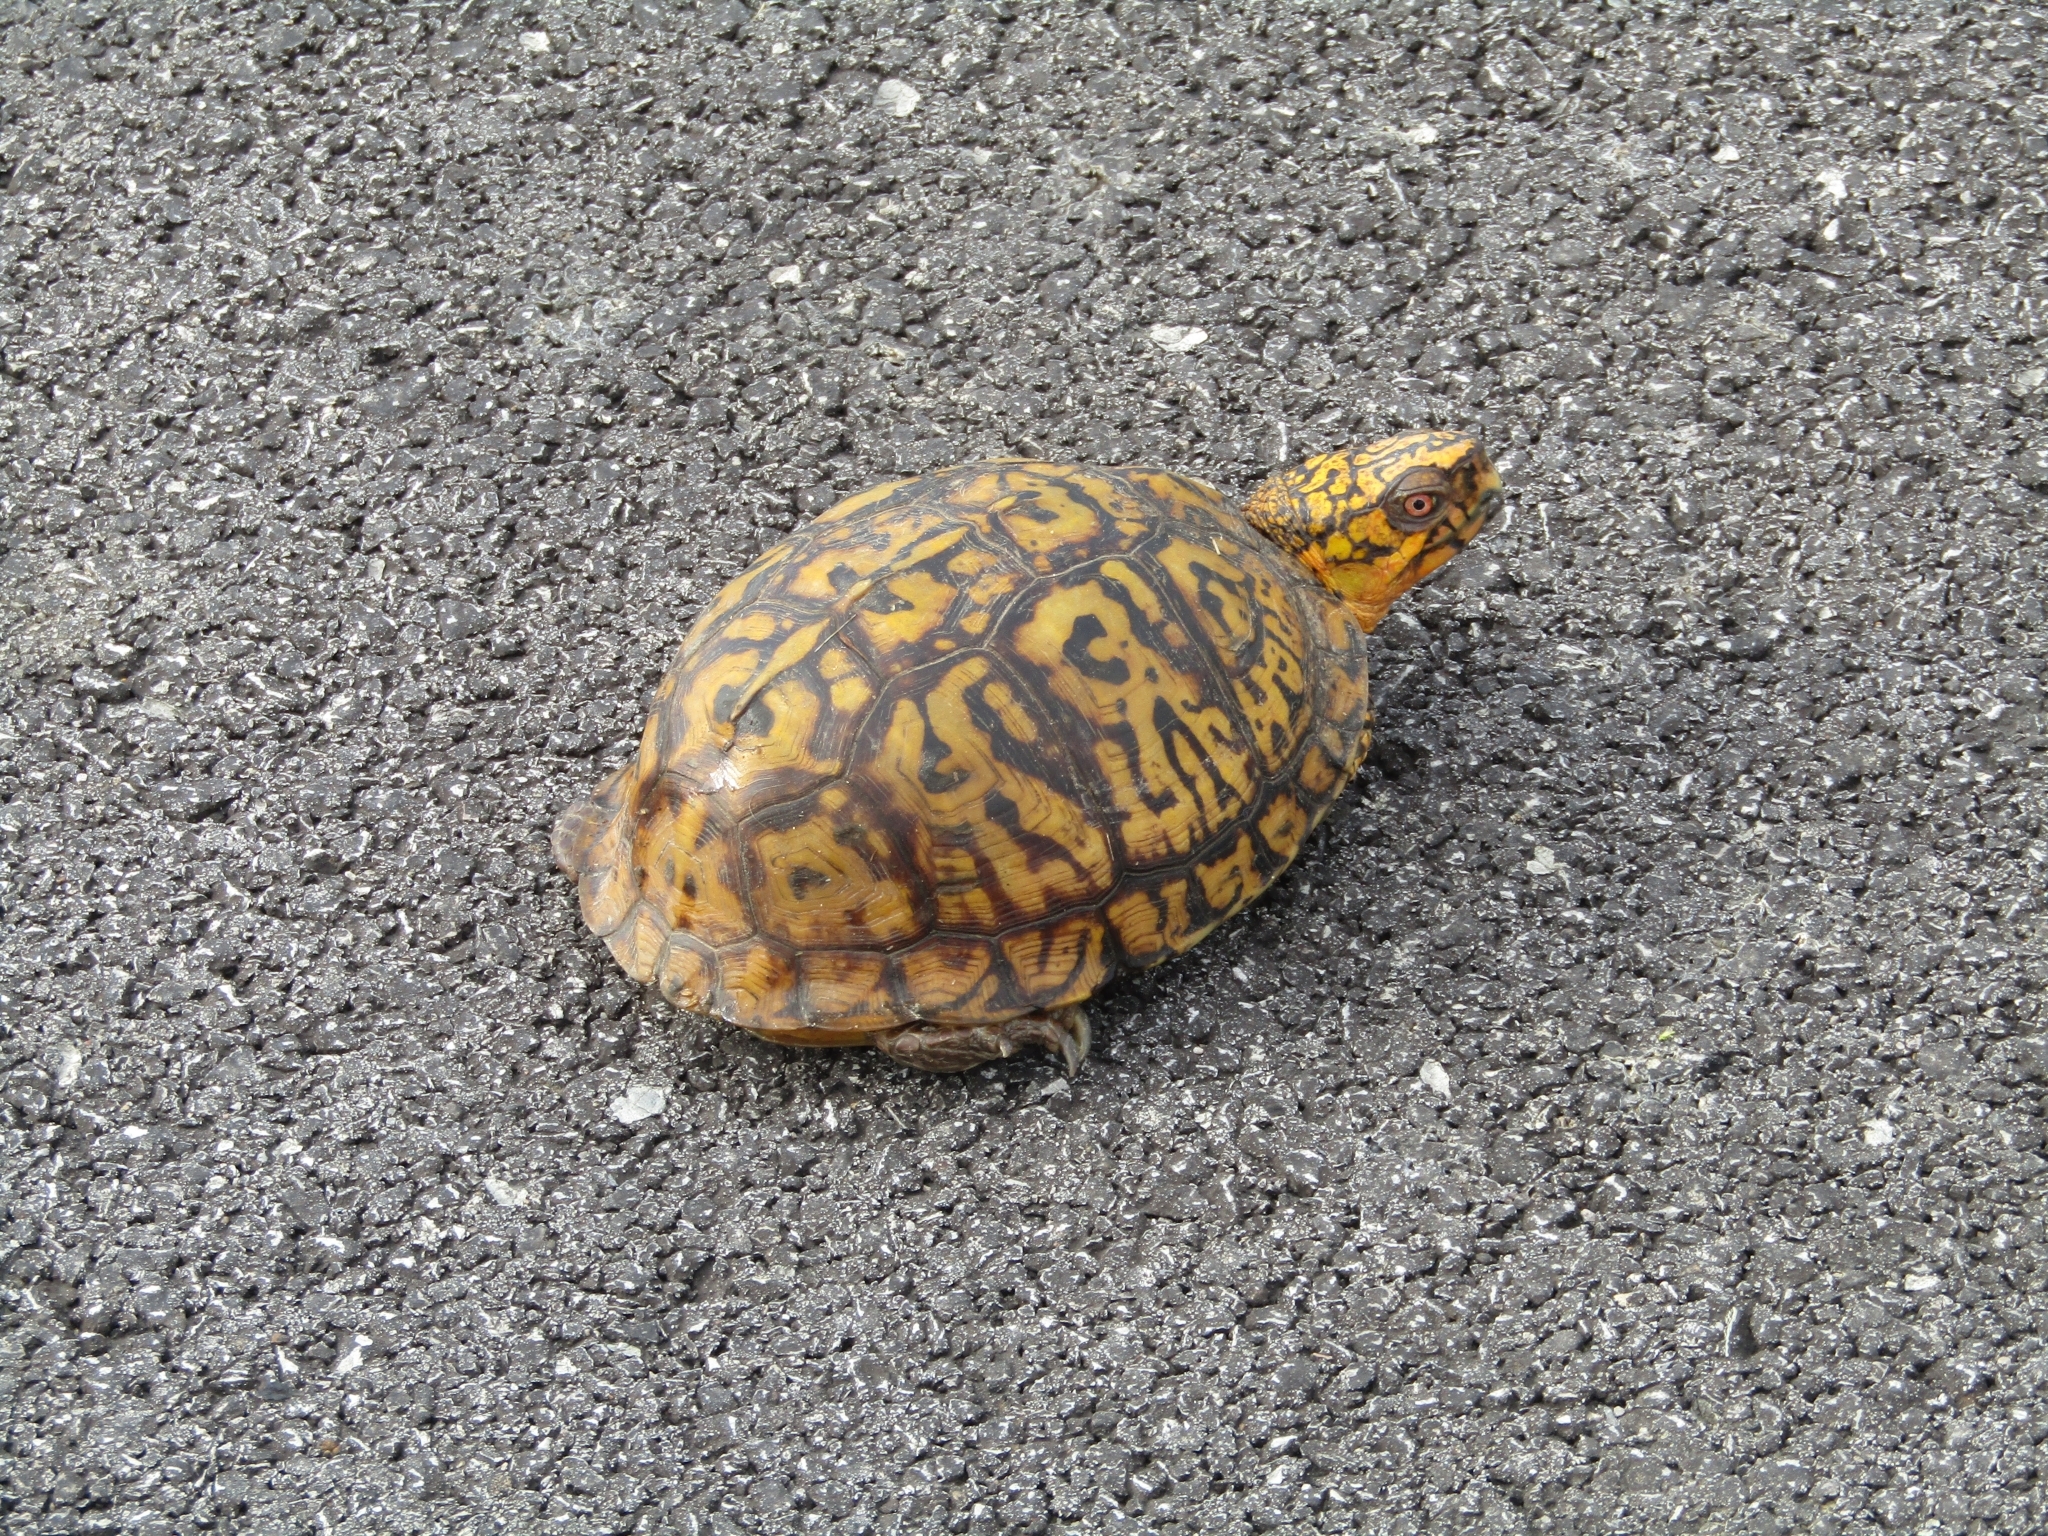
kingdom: Animalia
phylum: Chordata
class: Testudines
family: Emydidae
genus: Terrapene
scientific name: Terrapene carolina
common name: Common box turtle
